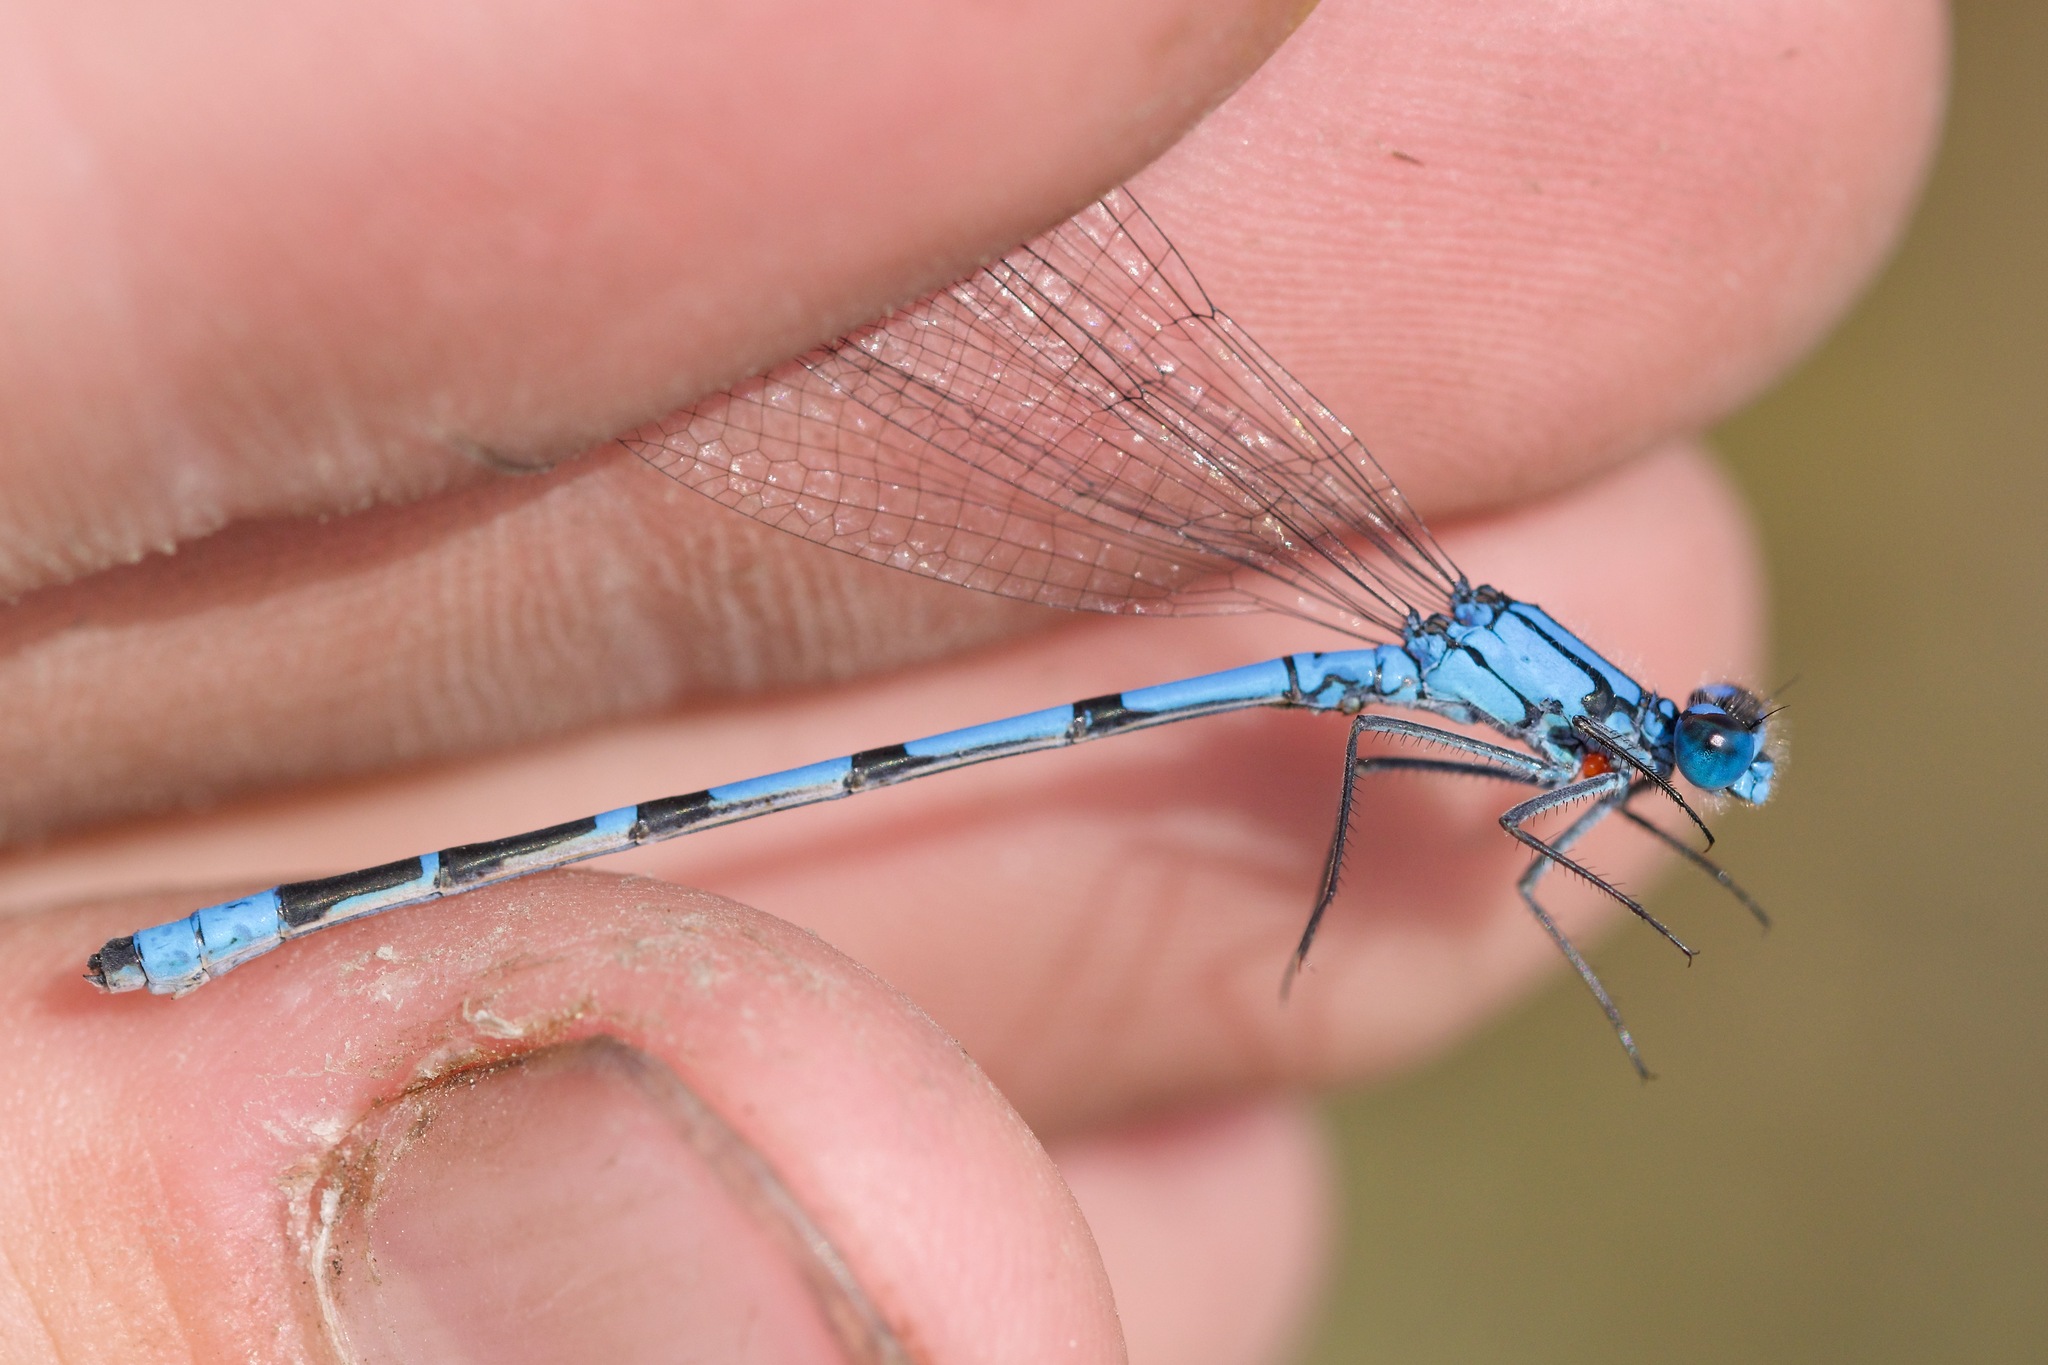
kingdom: Animalia
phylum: Arthropoda
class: Insecta
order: Odonata
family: Coenagrionidae
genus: Enallagma
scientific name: Enallagma boreale
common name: Boreal bluet
